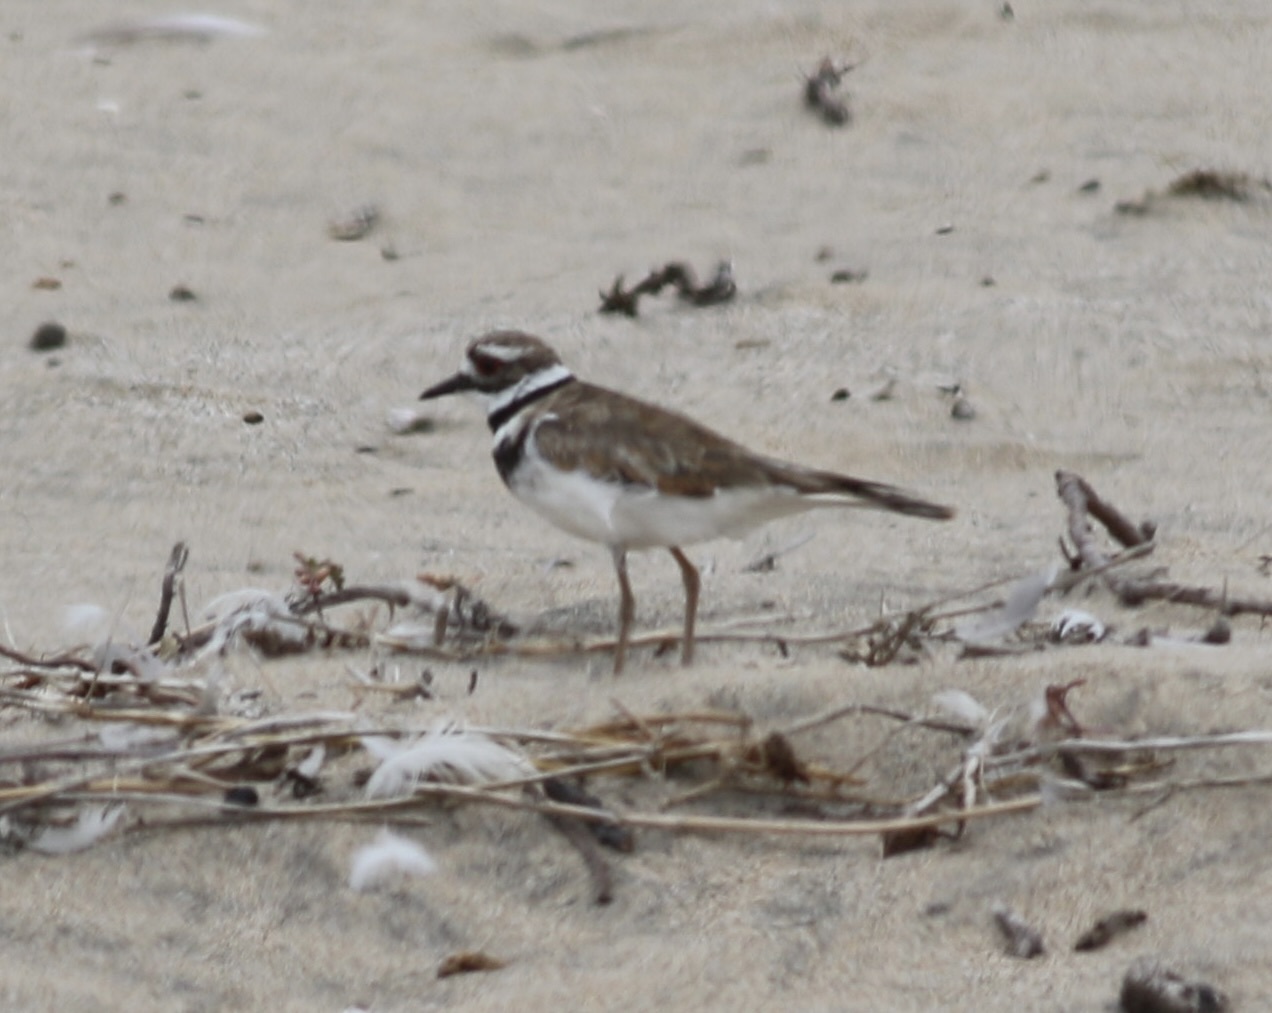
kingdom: Animalia
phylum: Chordata
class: Aves
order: Charadriiformes
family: Charadriidae
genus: Charadrius
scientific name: Charadrius vociferus
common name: Killdeer
